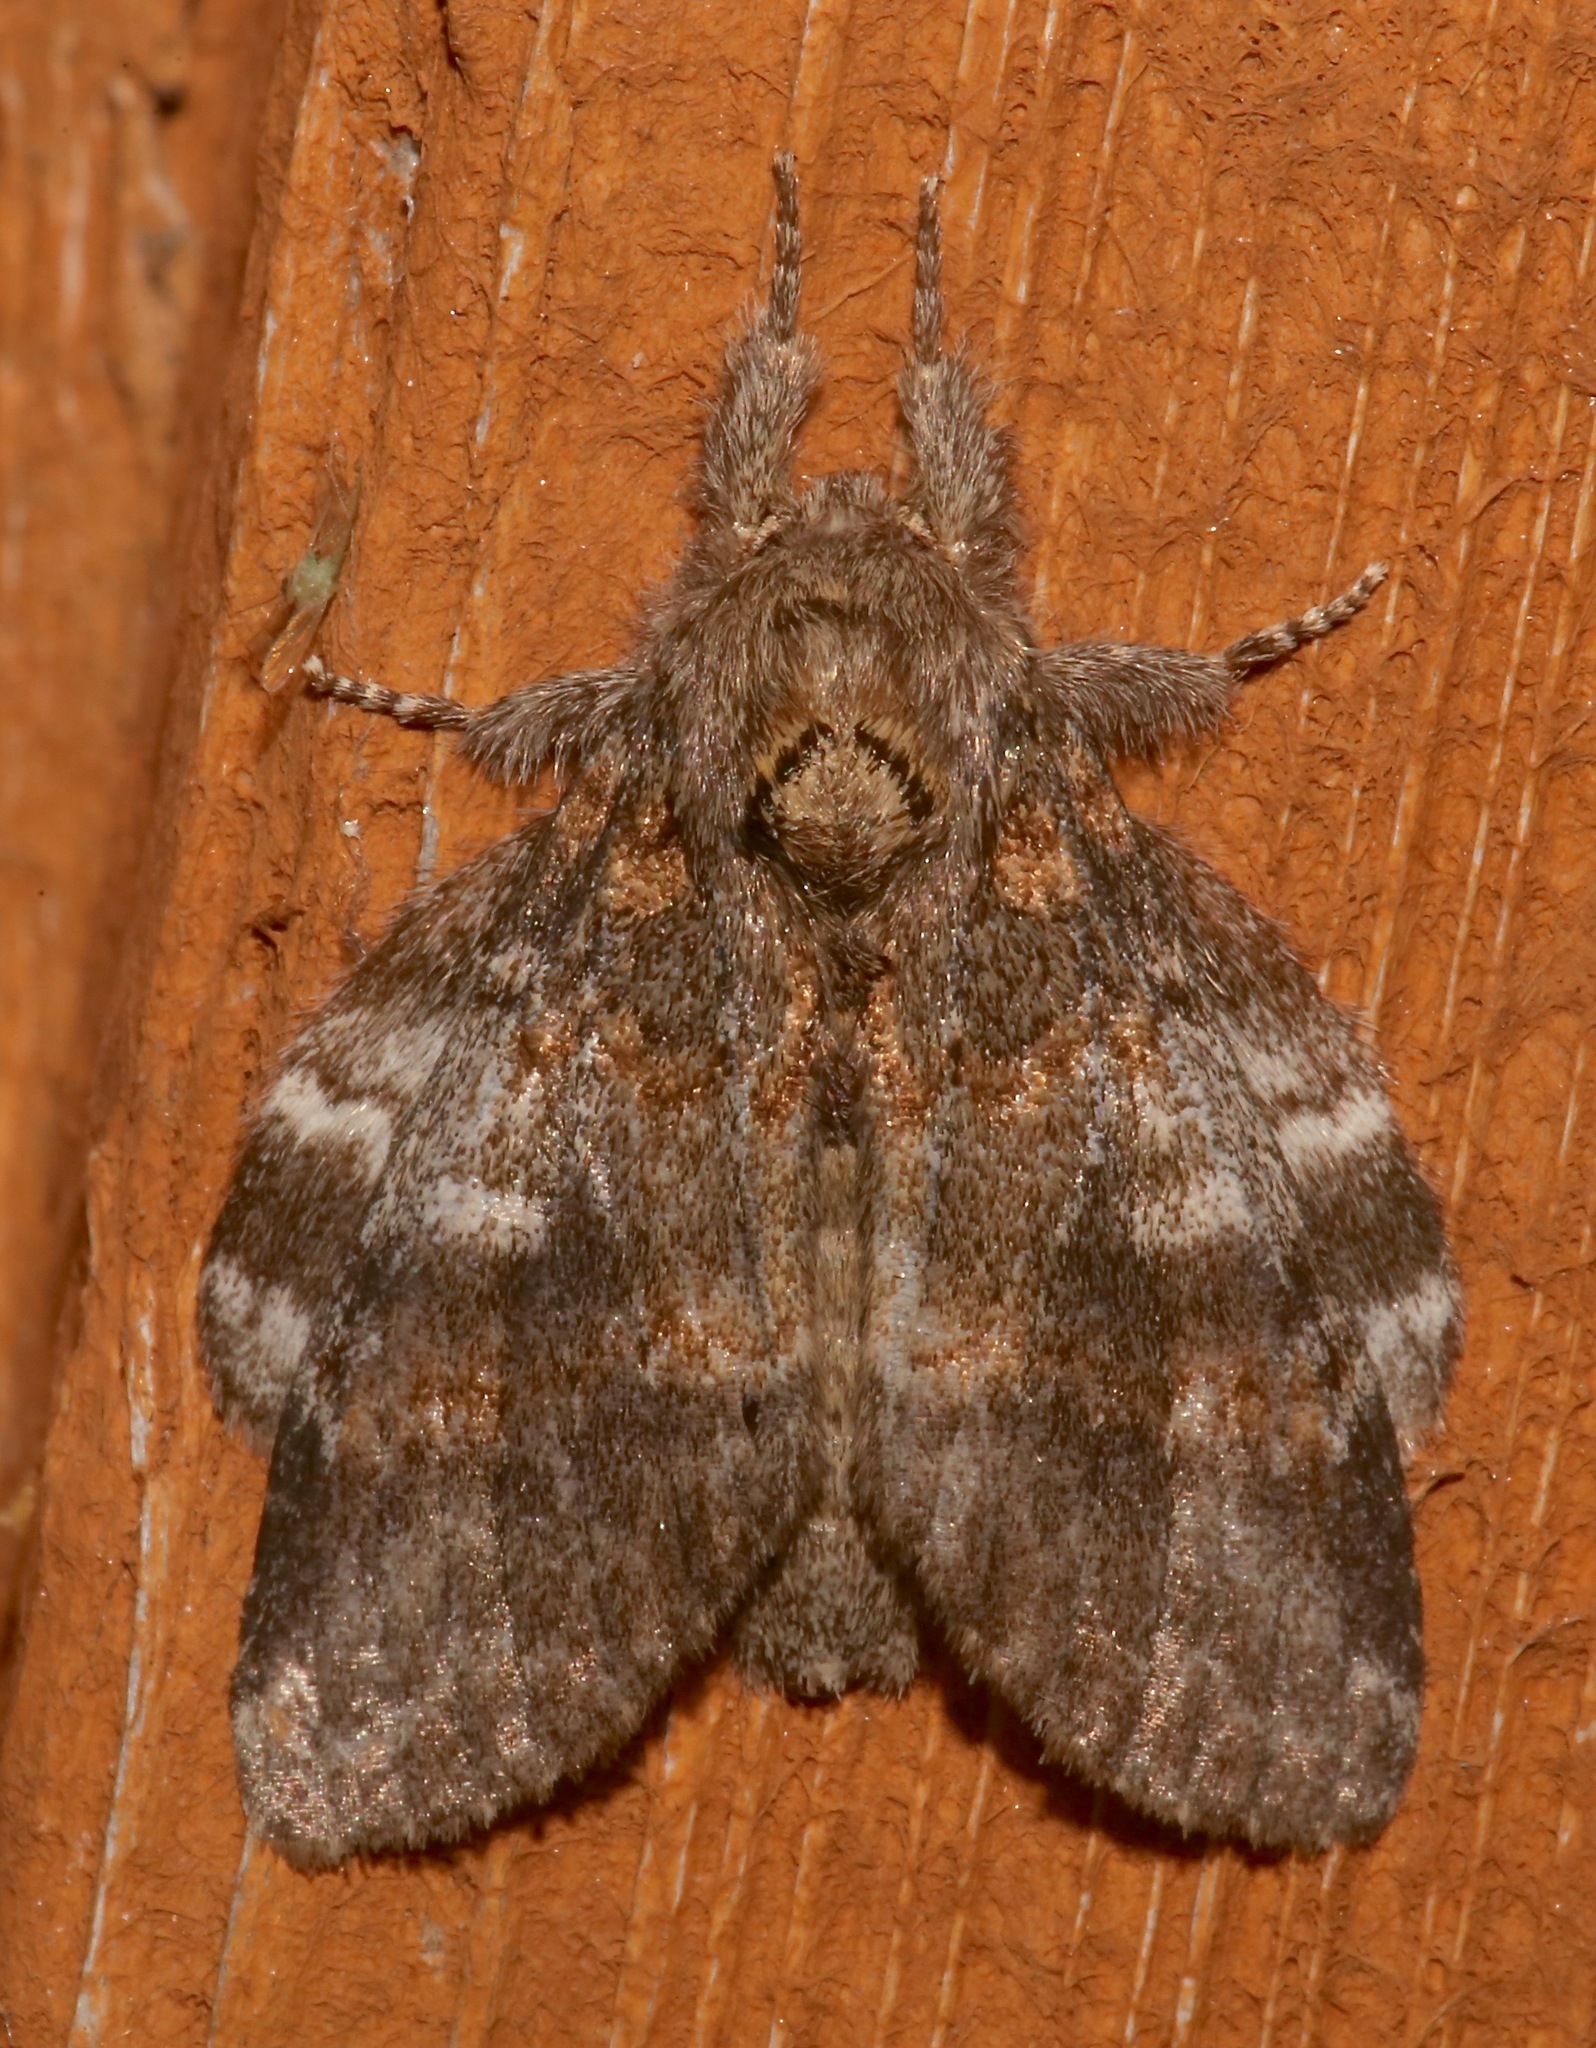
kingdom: Animalia
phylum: Arthropoda
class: Insecta
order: Lepidoptera
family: Notodontidae
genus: Peridea
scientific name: Peridea angulosa
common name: Angulose prominent
